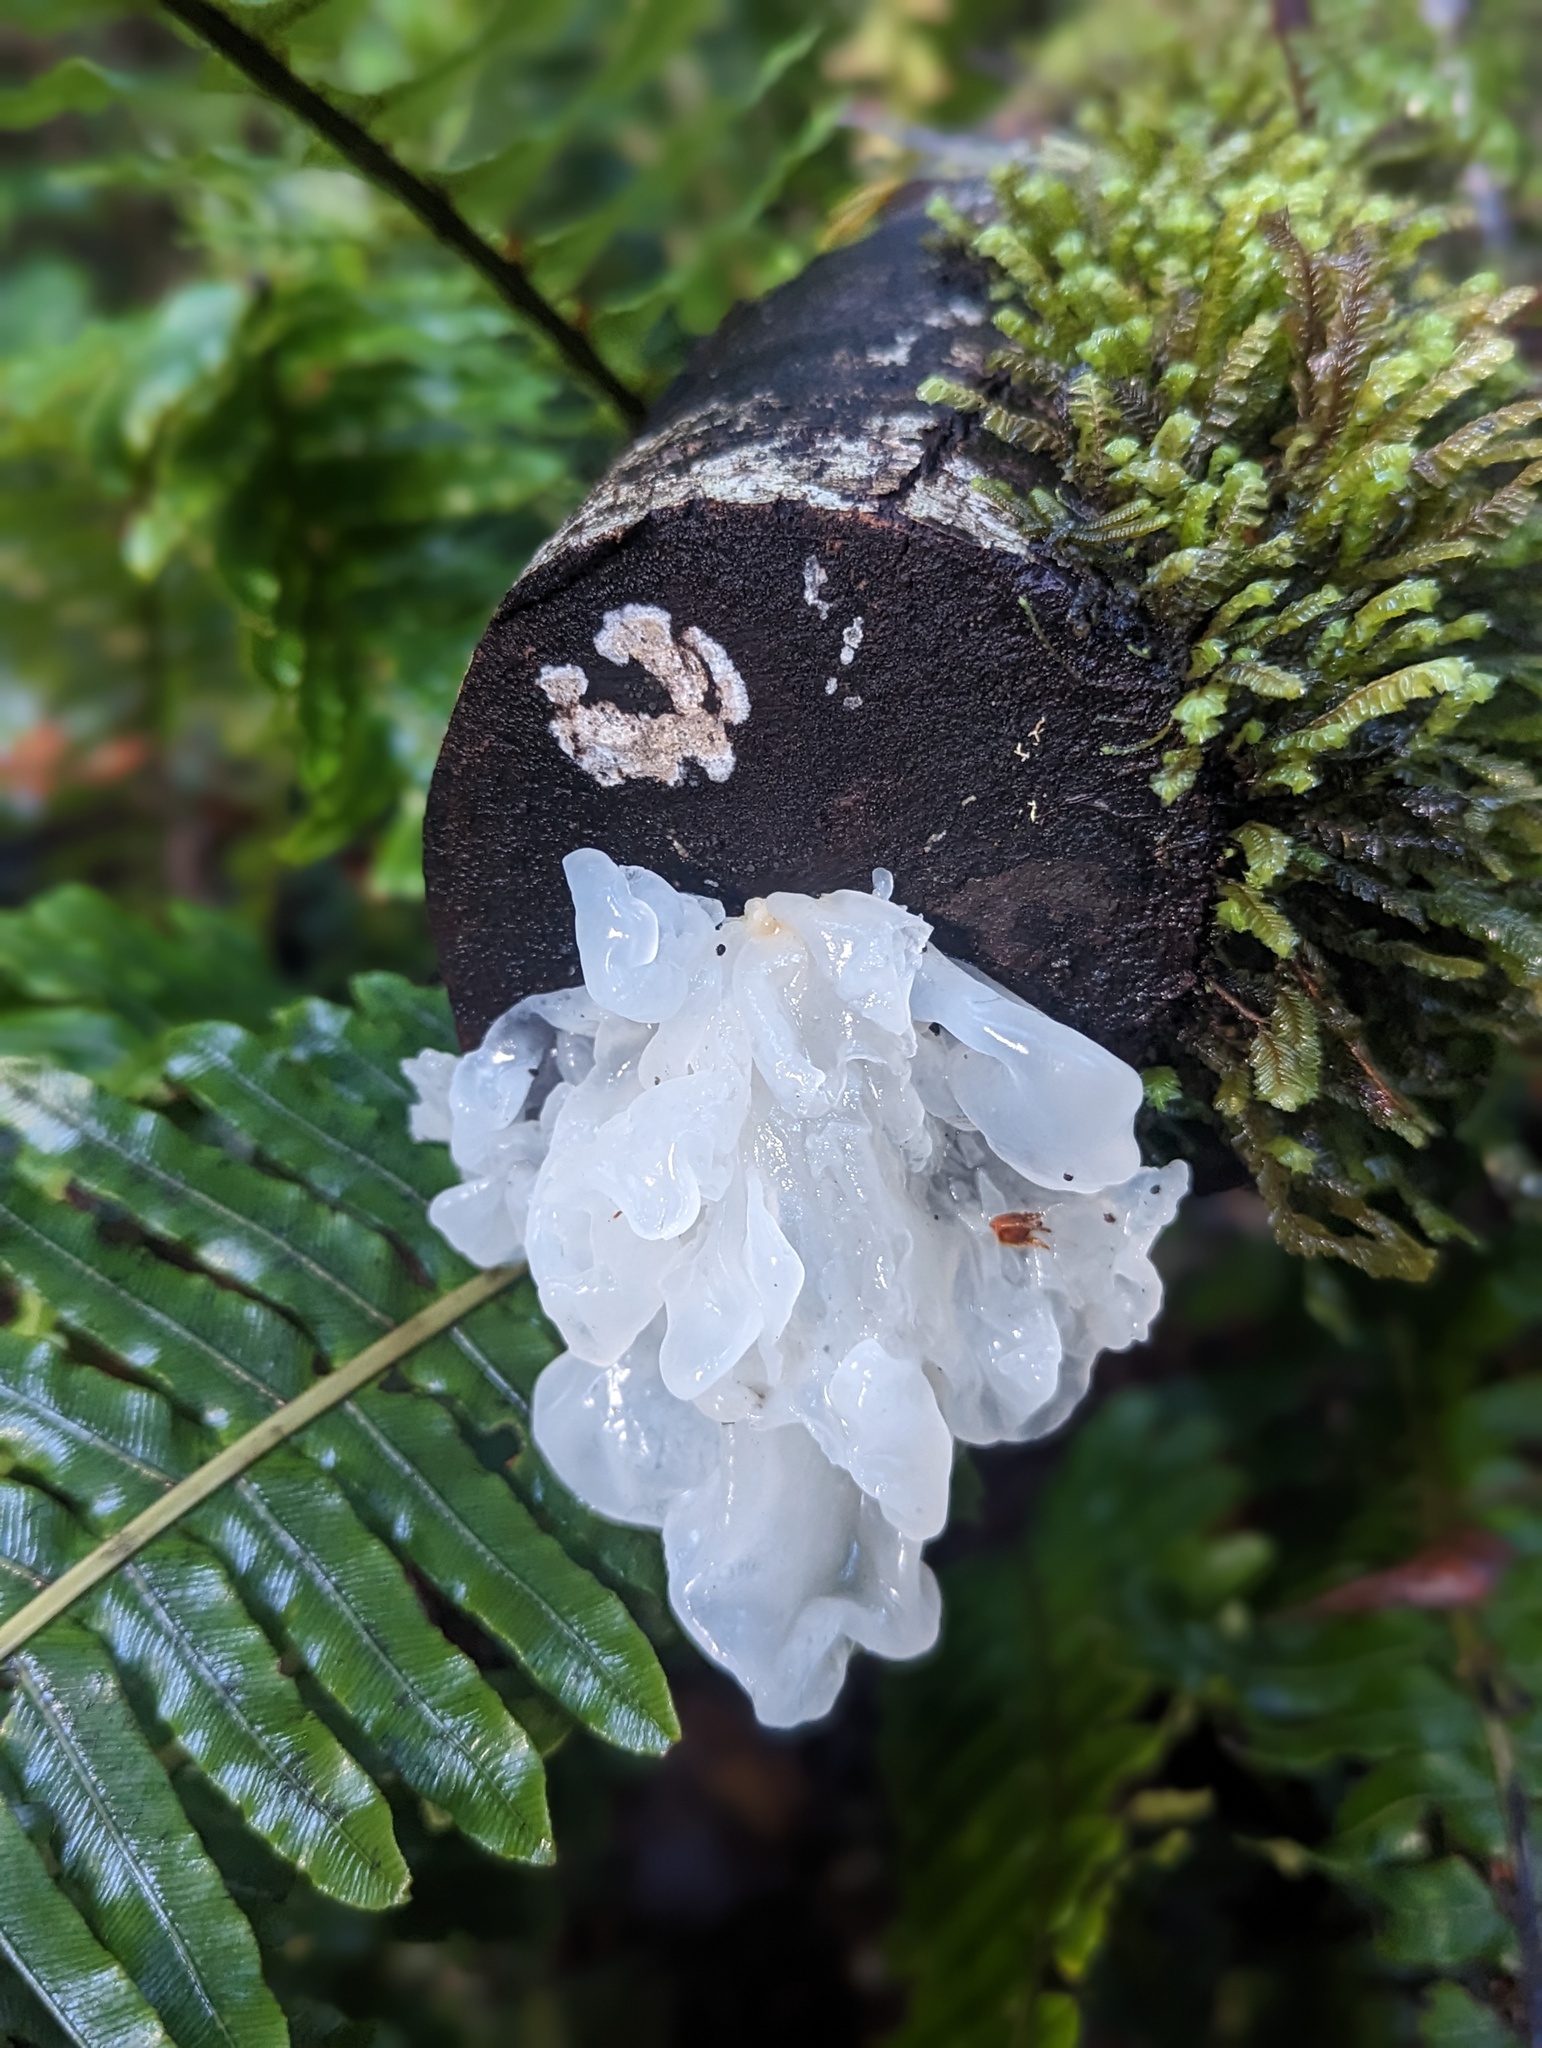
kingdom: Fungi
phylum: Basidiomycota
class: Tremellomycetes
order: Tremellales
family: Tremellaceae
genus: Tremella
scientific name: Tremella fuciformis
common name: Snow fungus
